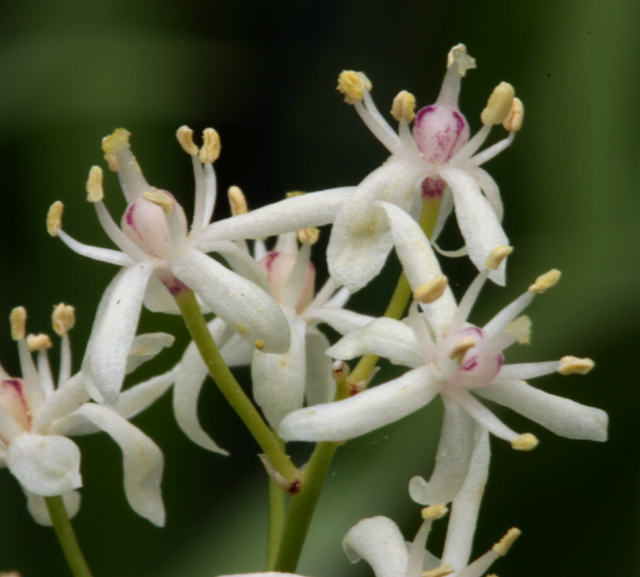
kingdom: Plantae
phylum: Tracheophyta
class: Liliopsida
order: Asparagales
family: Asparagaceae
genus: Maianthemum
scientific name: Maianthemum stellatum
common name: Little false solomon's seal
